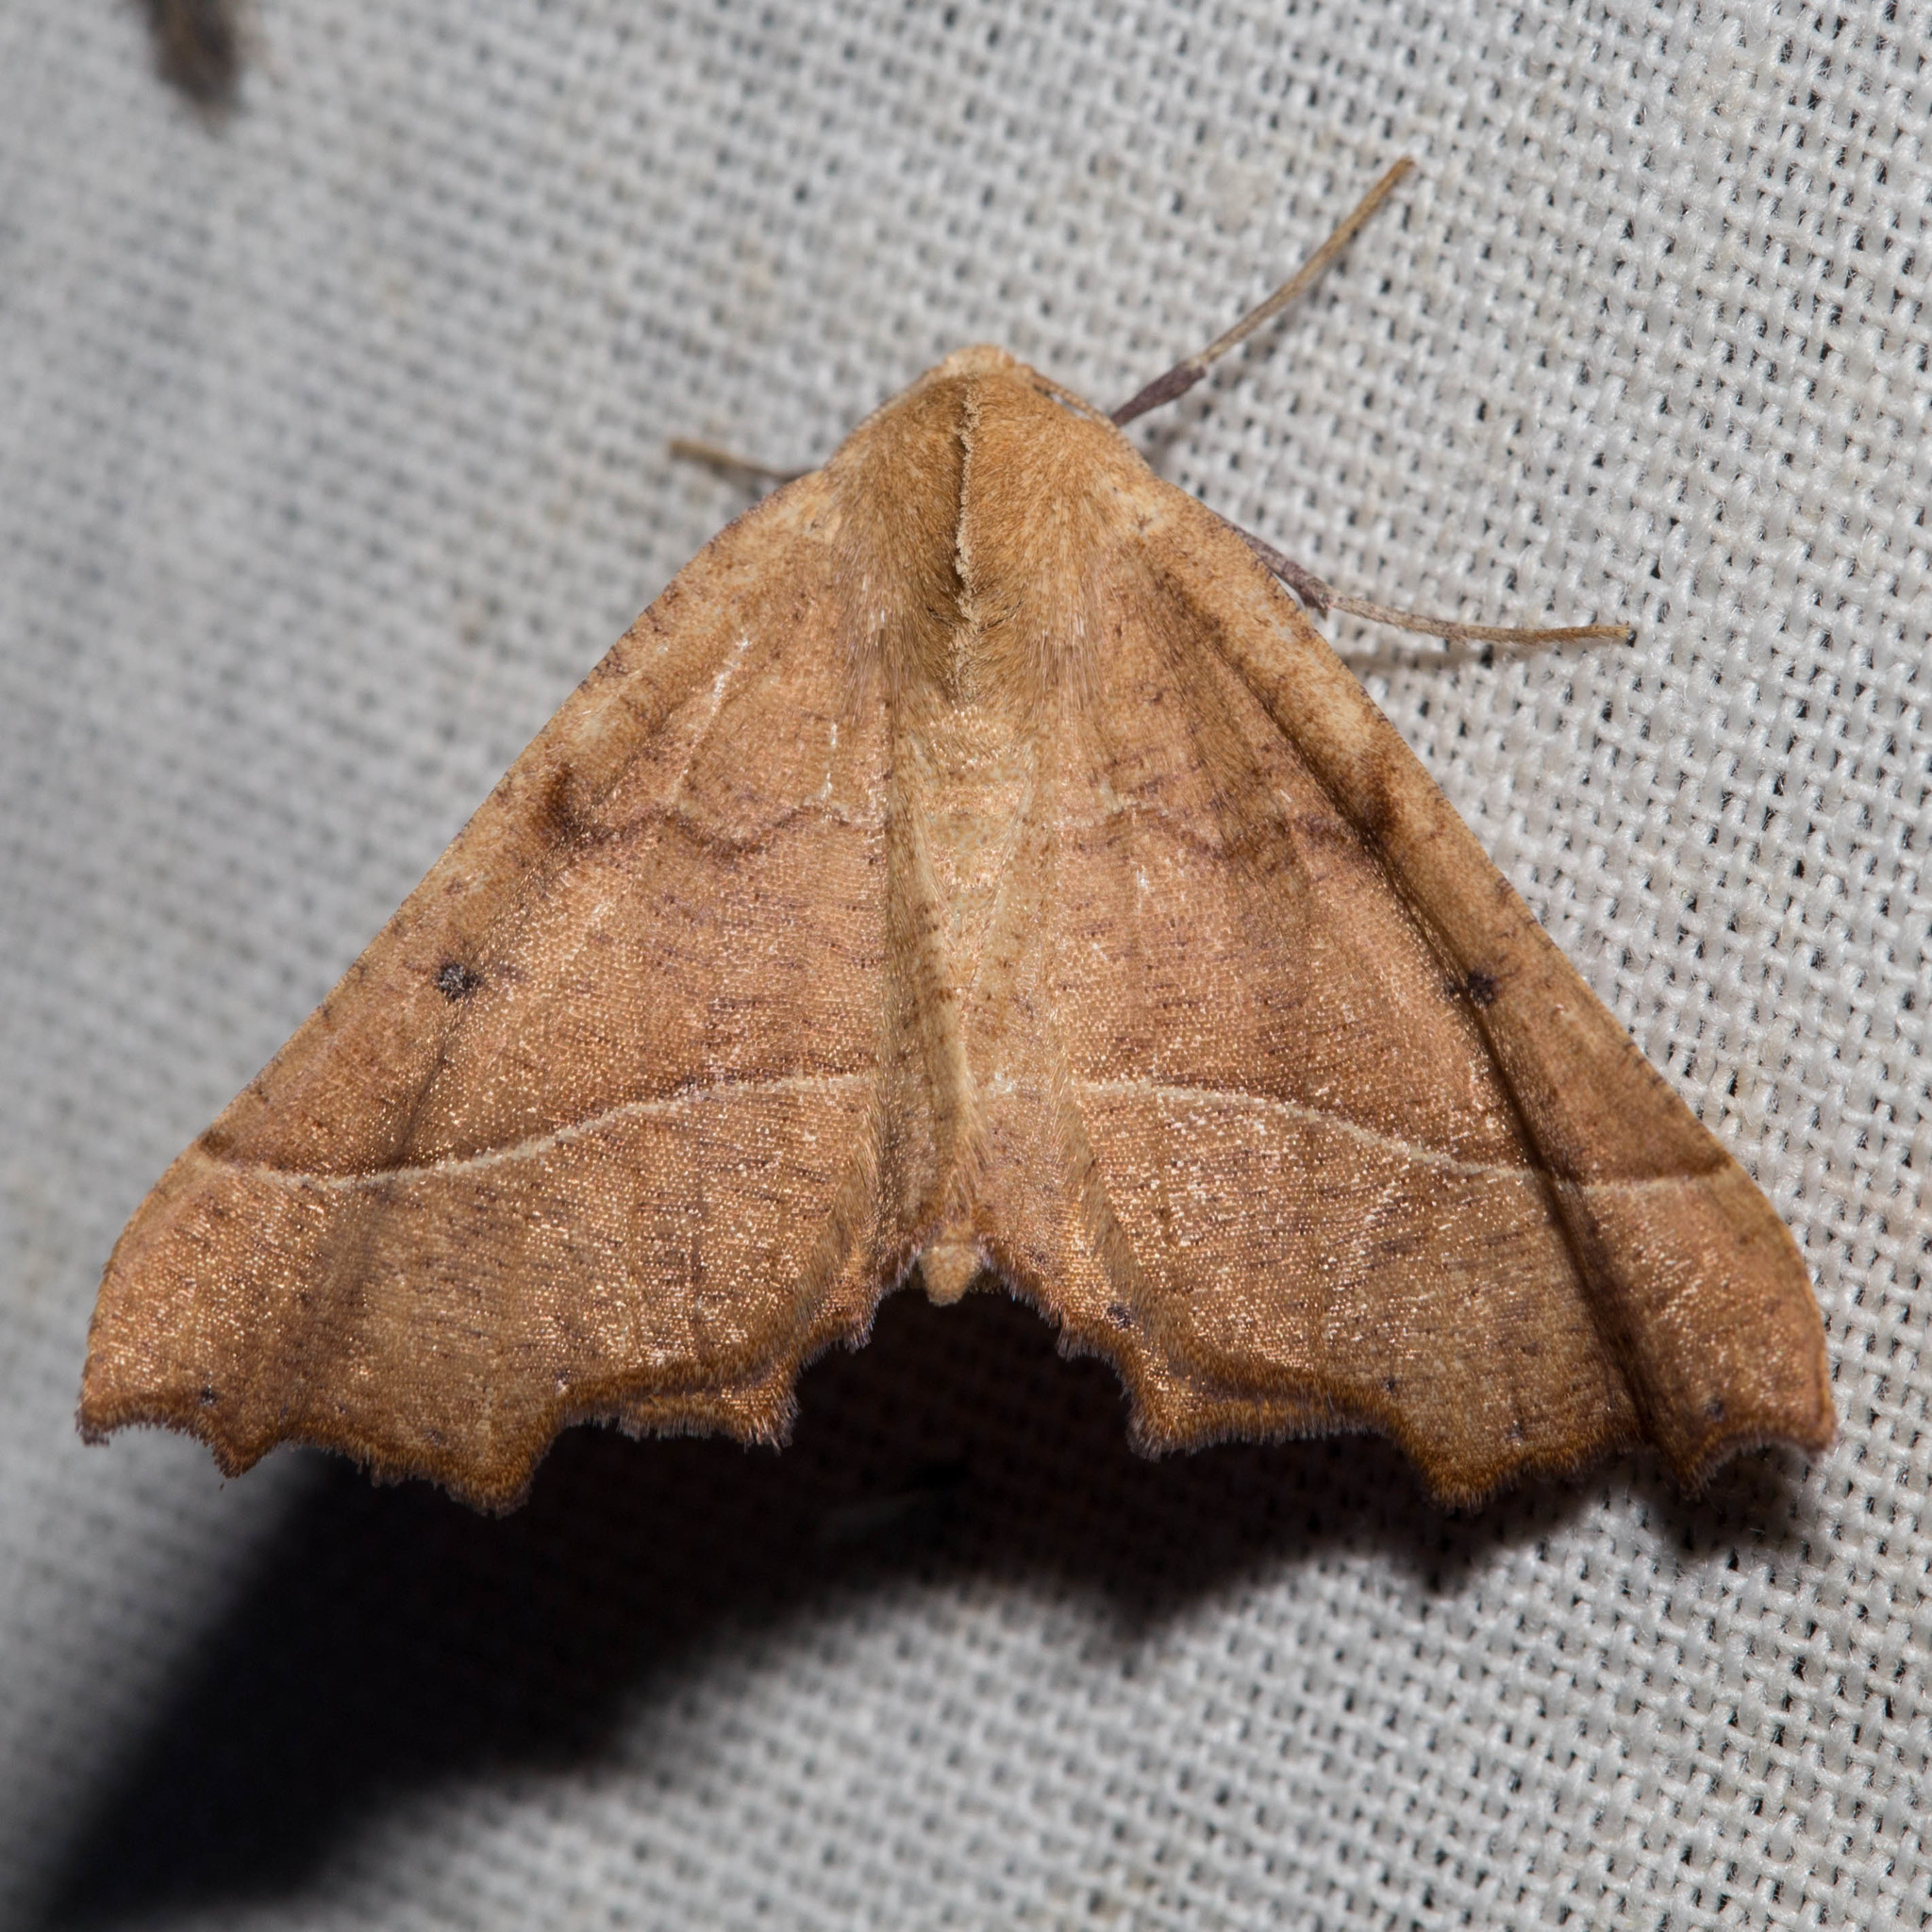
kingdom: Animalia
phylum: Arthropoda
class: Insecta
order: Lepidoptera
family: Geometridae
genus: Pero
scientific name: Pero radiosaria
